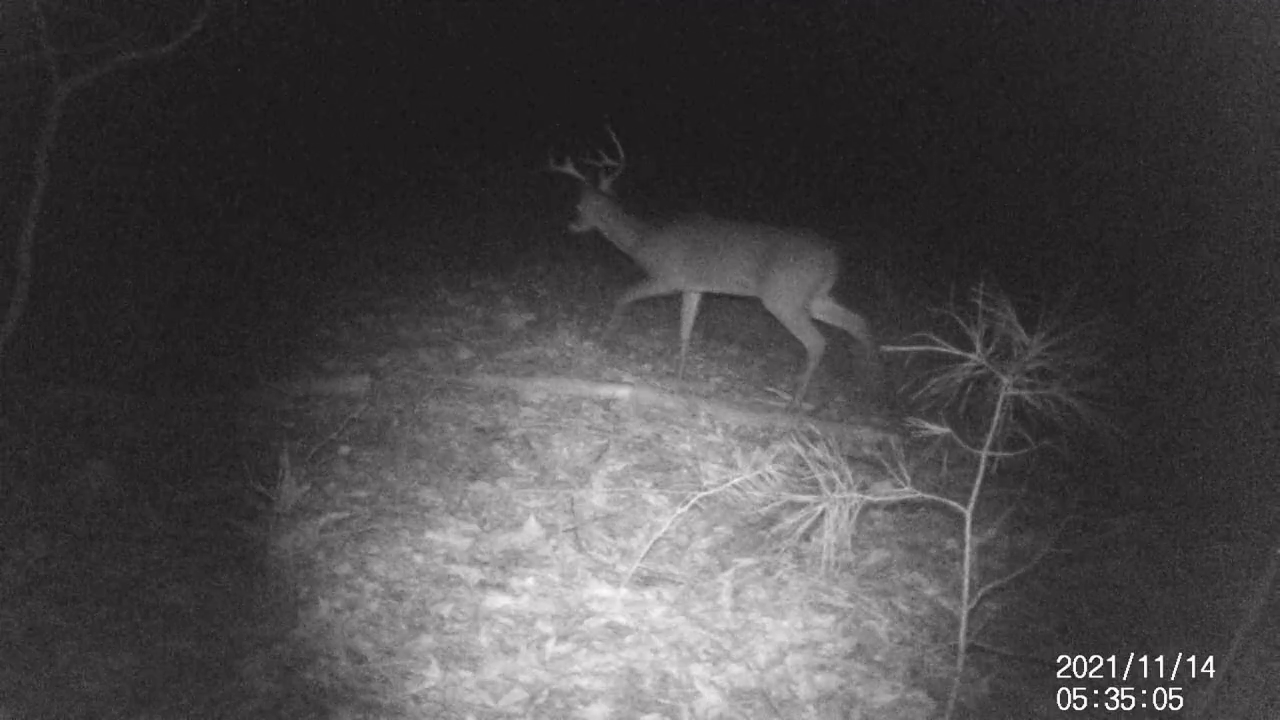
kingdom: Animalia
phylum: Chordata
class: Mammalia
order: Artiodactyla
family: Cervidae
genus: Odocoileus
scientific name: Odocoileus virginianus
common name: White-tailed deer
